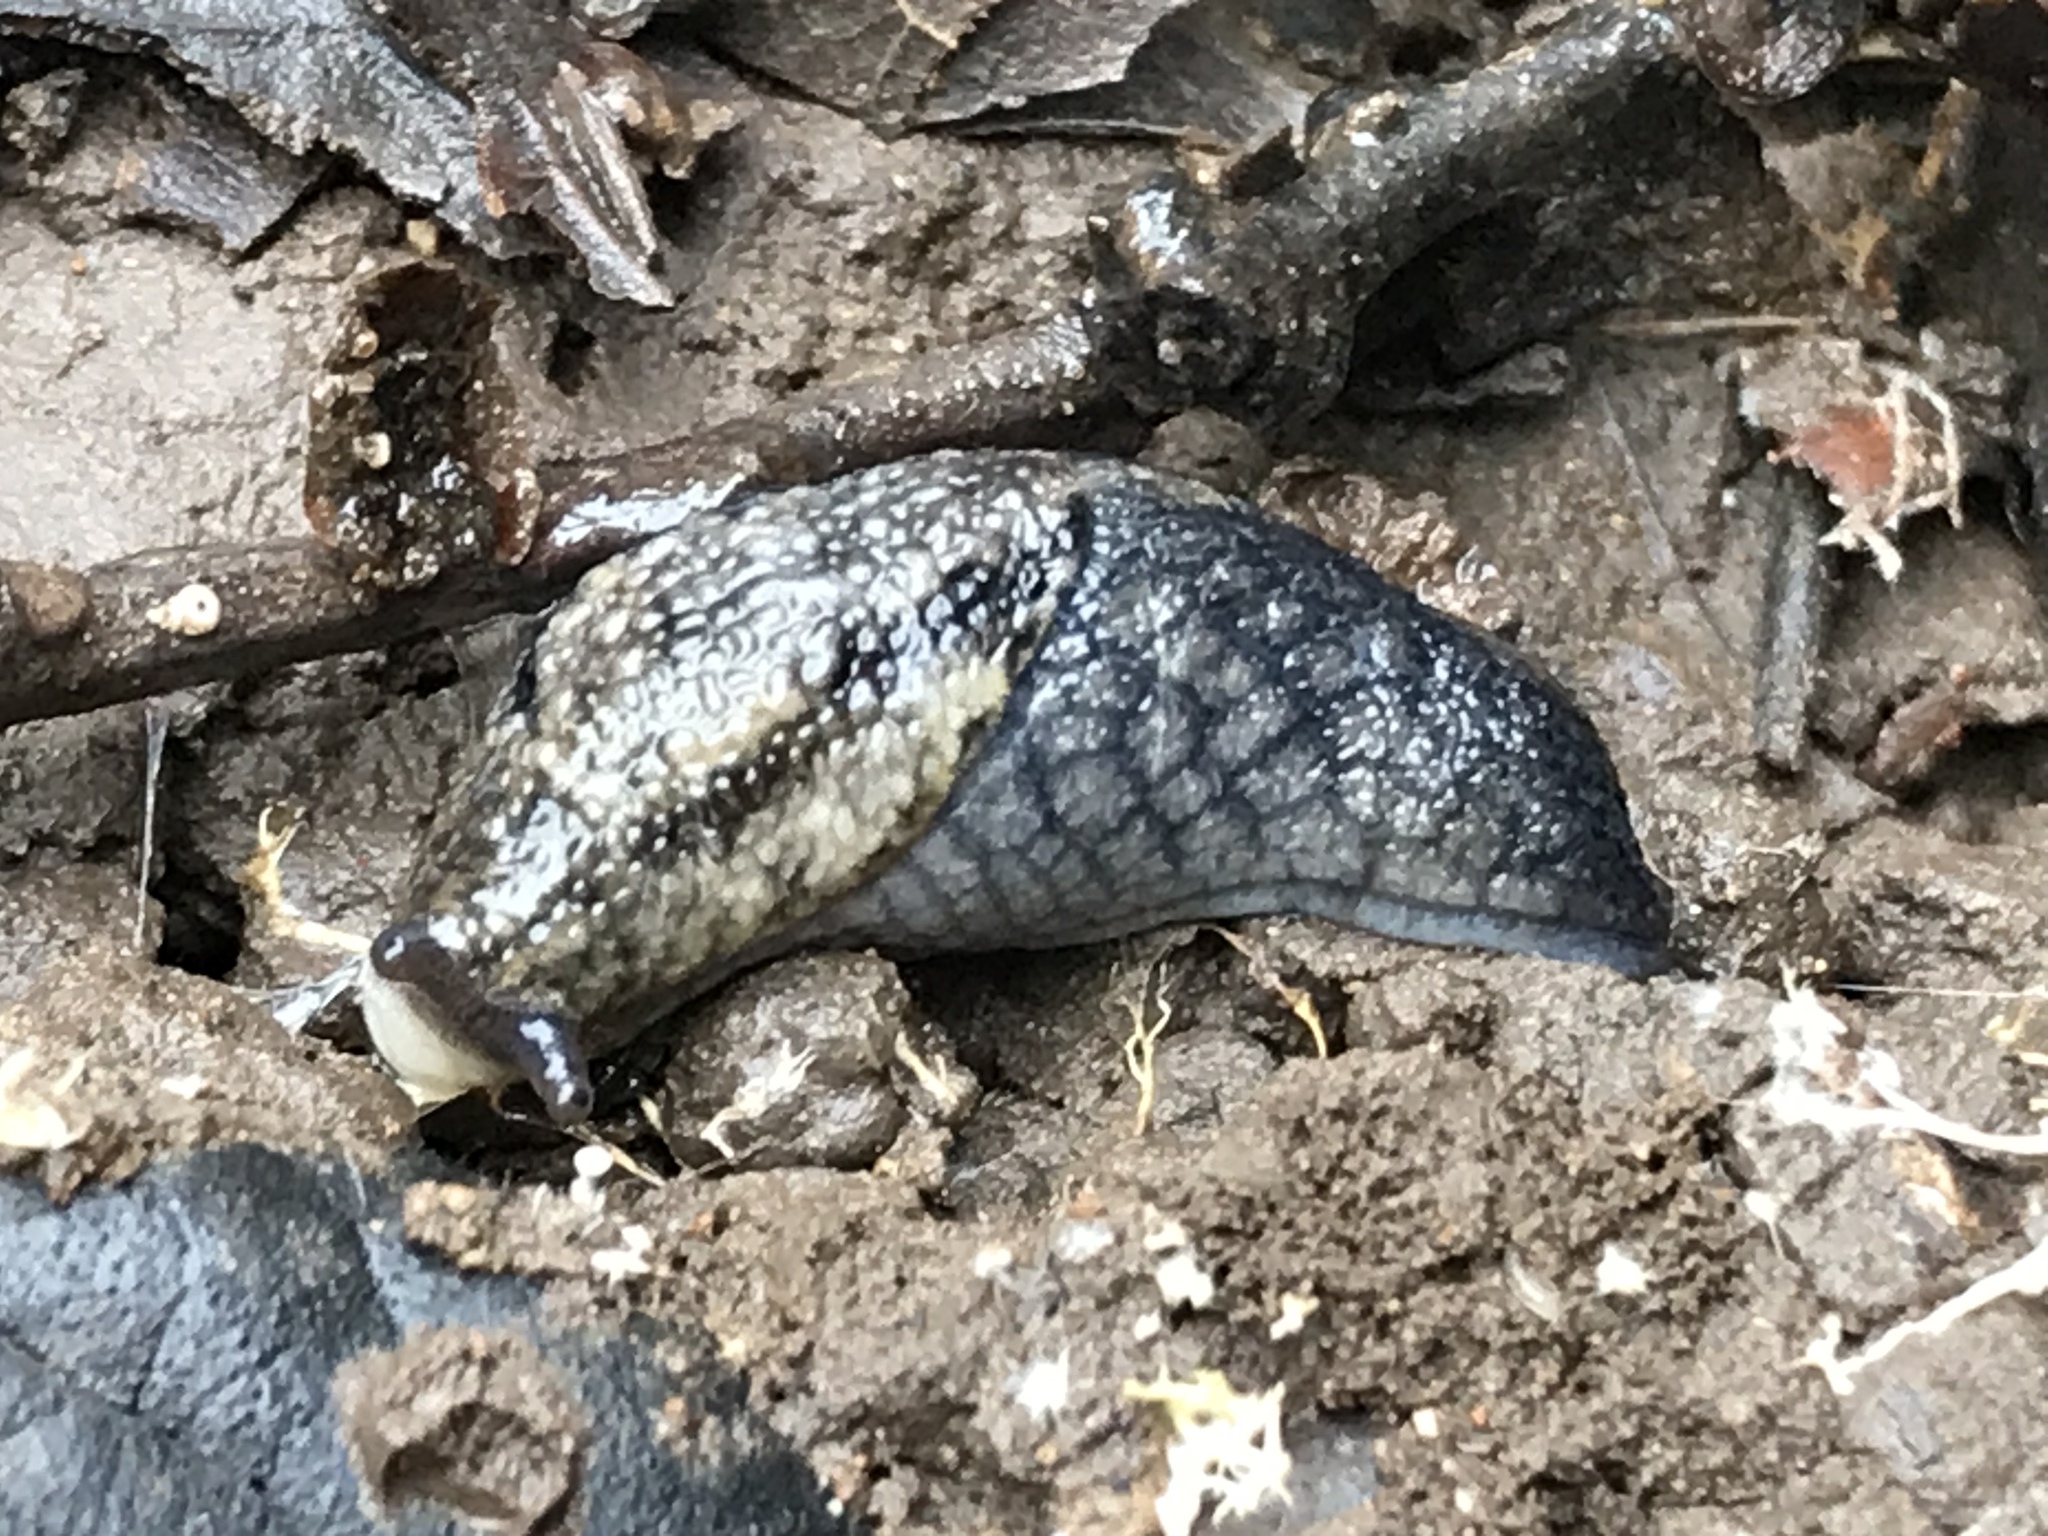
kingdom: Animalia
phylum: Mollusca
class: Gastropoda
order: Stylommatophora
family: Ariolimacidae
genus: Prophysaon
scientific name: Prophysaon andersonii
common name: Reticulate taildropper
